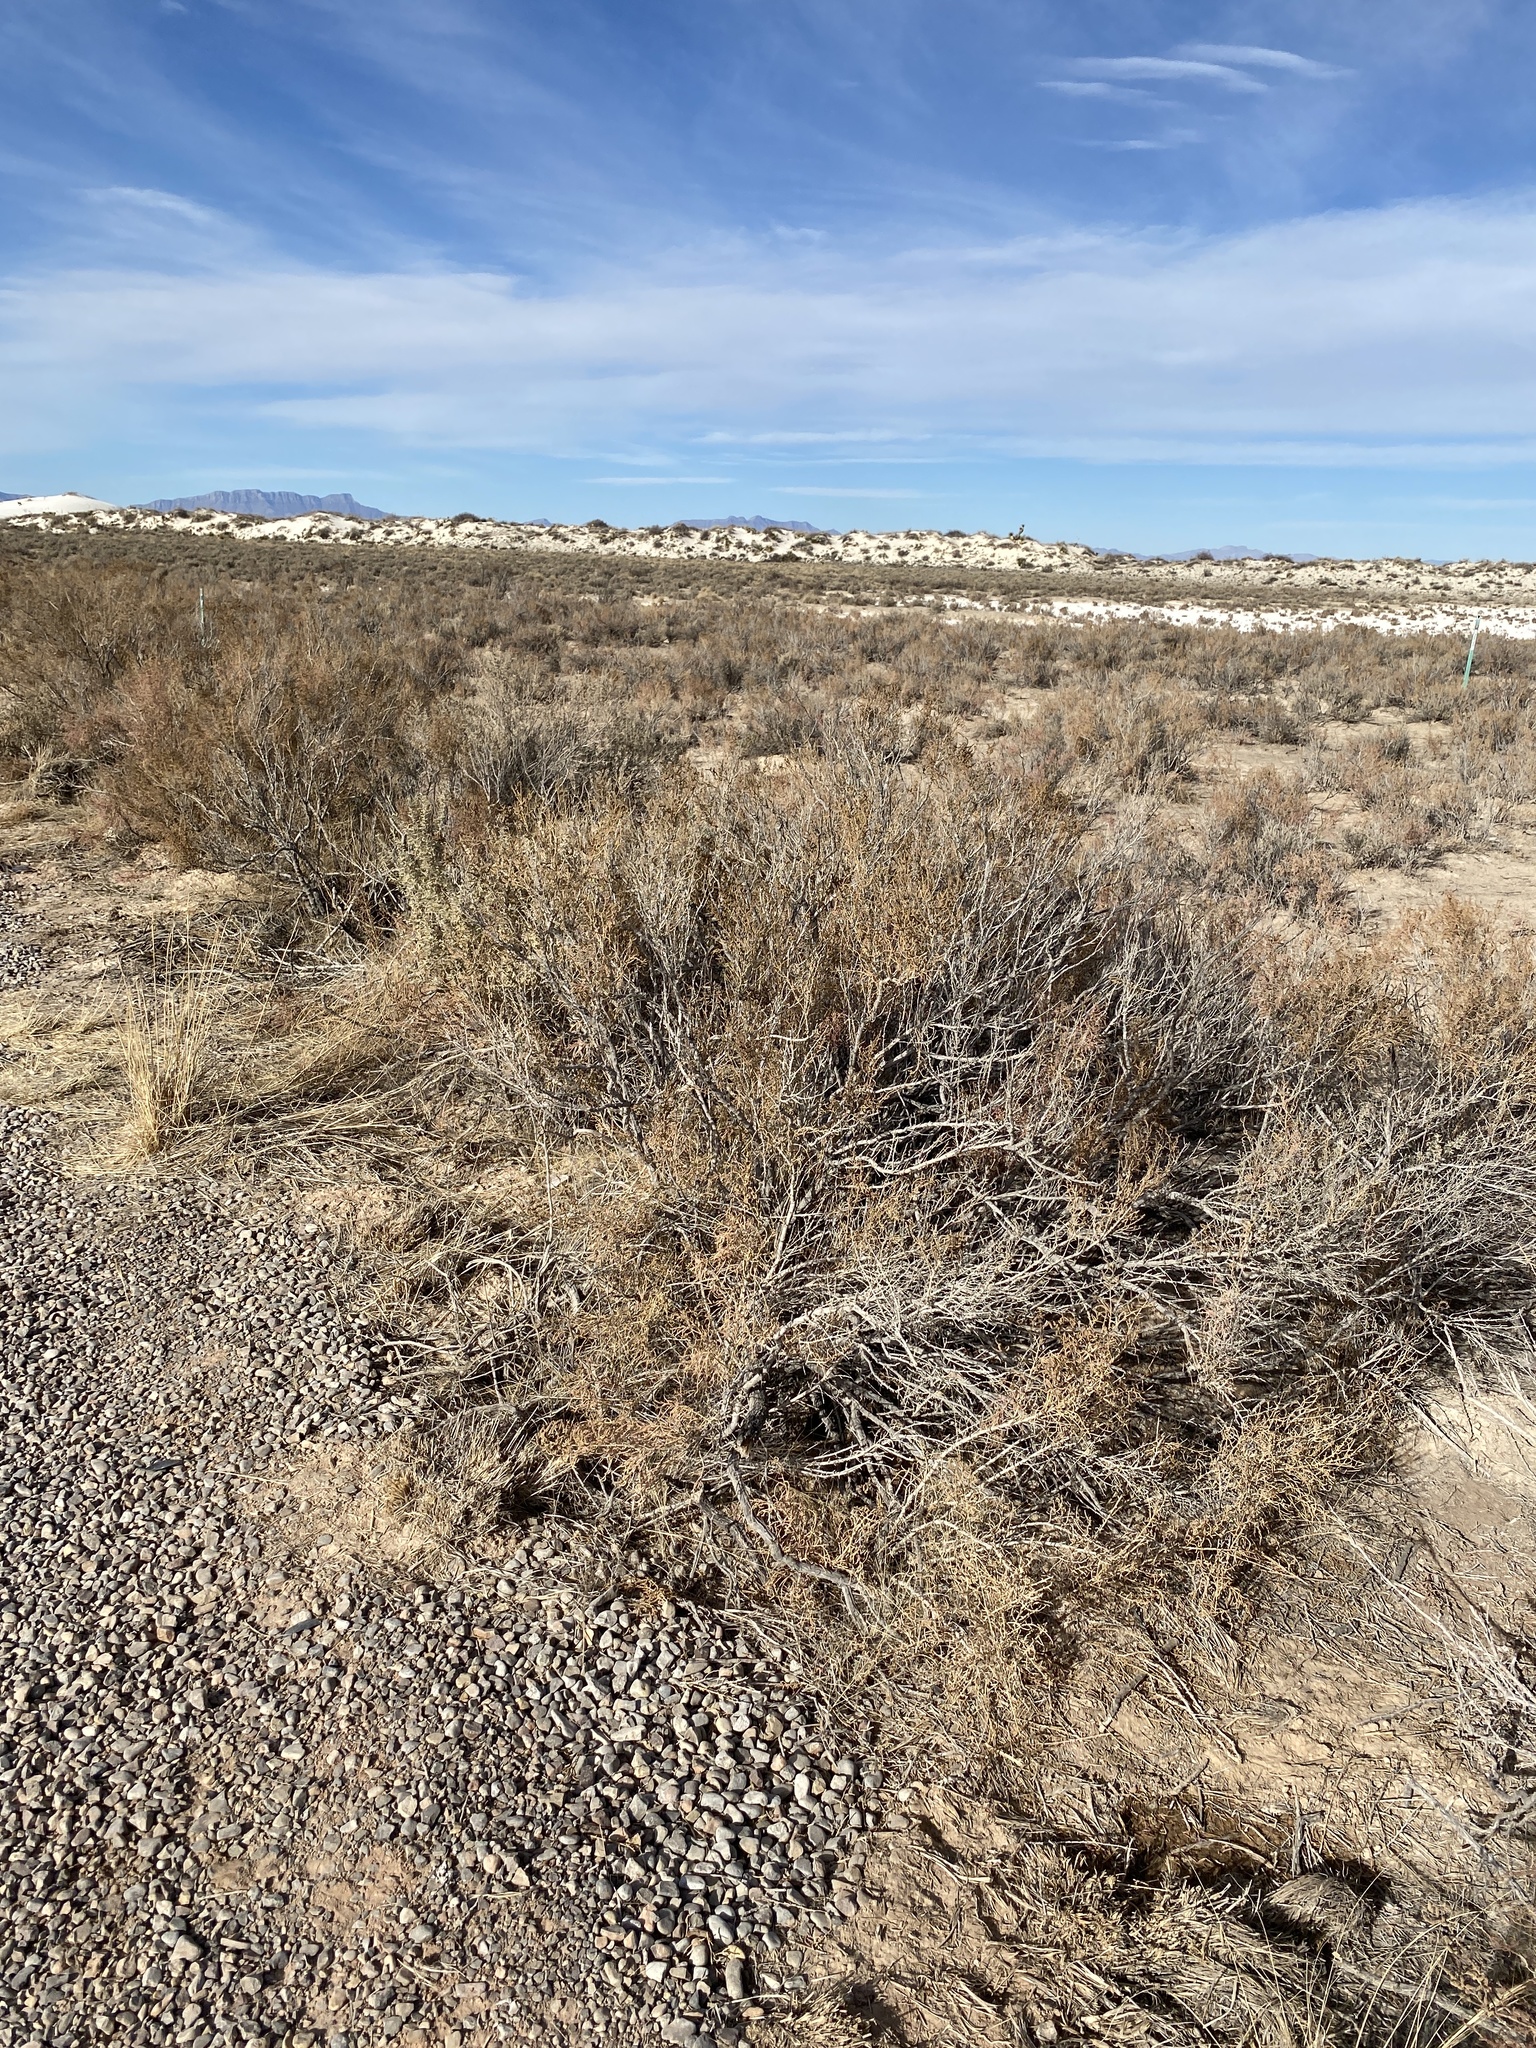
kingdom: Plantae
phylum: Tracheophyta
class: Magnoliopsida
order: Caryophyllales
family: Amaranthaceae
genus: Allenrolfea
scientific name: Allenrolfea occidentalis
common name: Iodine-bush
